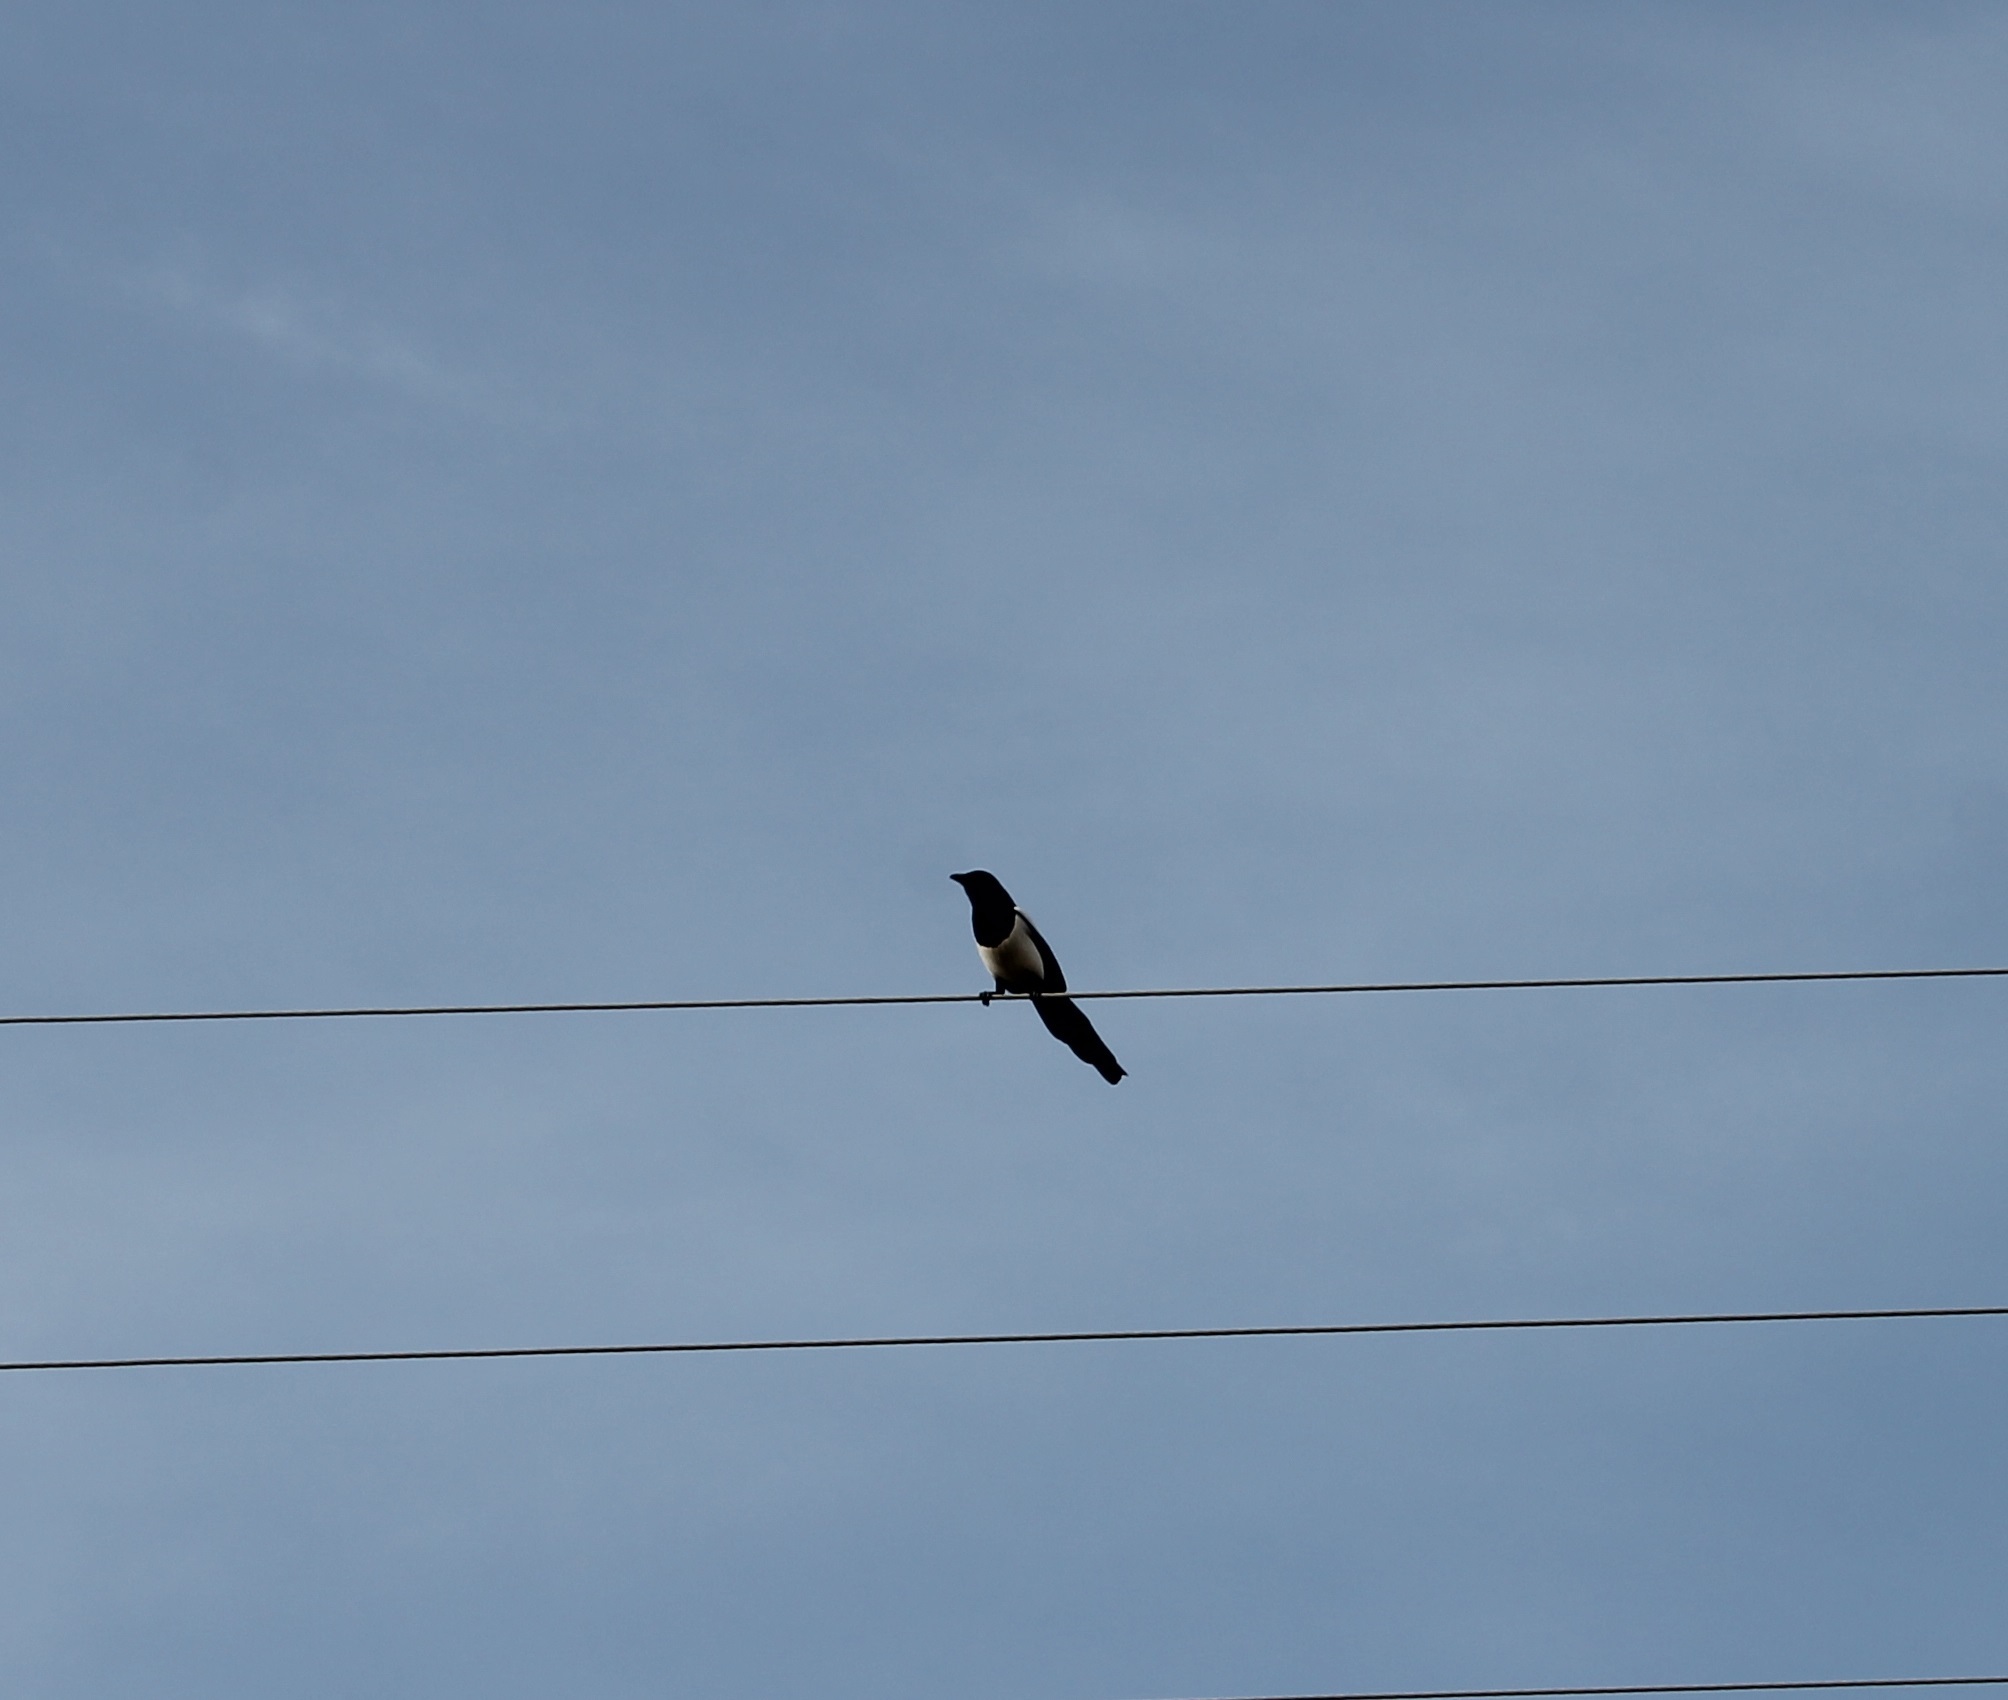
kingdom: Animalia
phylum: Chordata
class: Aves
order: Passeriformes
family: Corvidae
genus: Pica
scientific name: Pica pica
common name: Eurasian magpie
